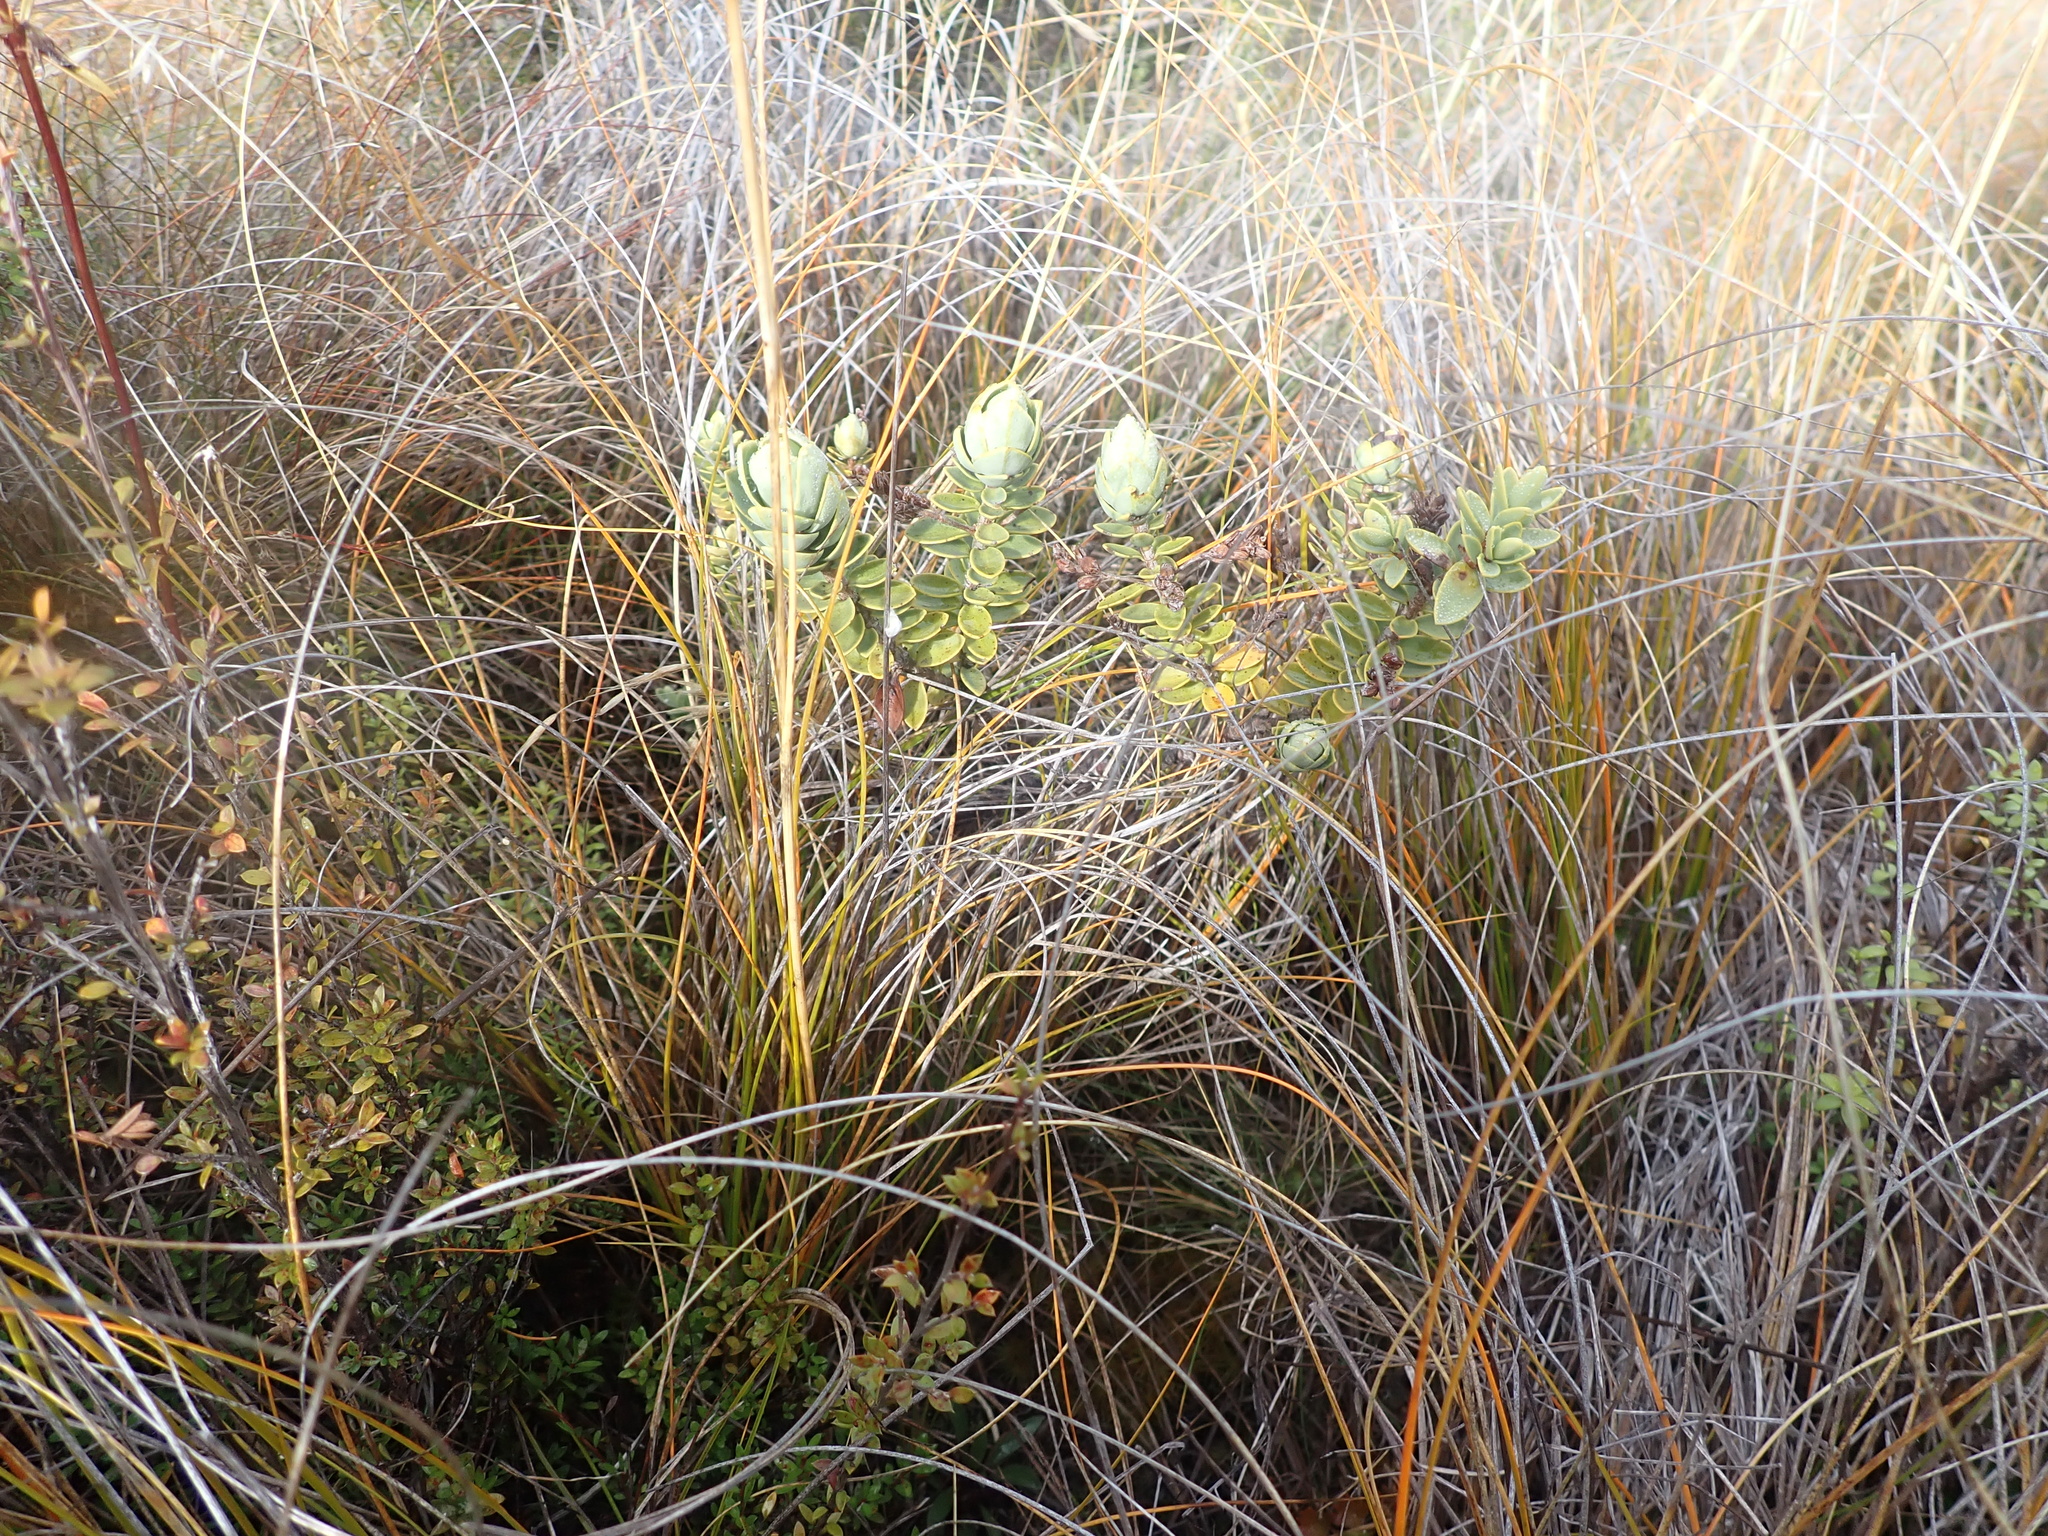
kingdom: Plantae
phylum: Tracheophyta
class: Magnoliopsida
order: Lamiales
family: Plantaginaceae
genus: Veronica
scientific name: Veronica albicans
